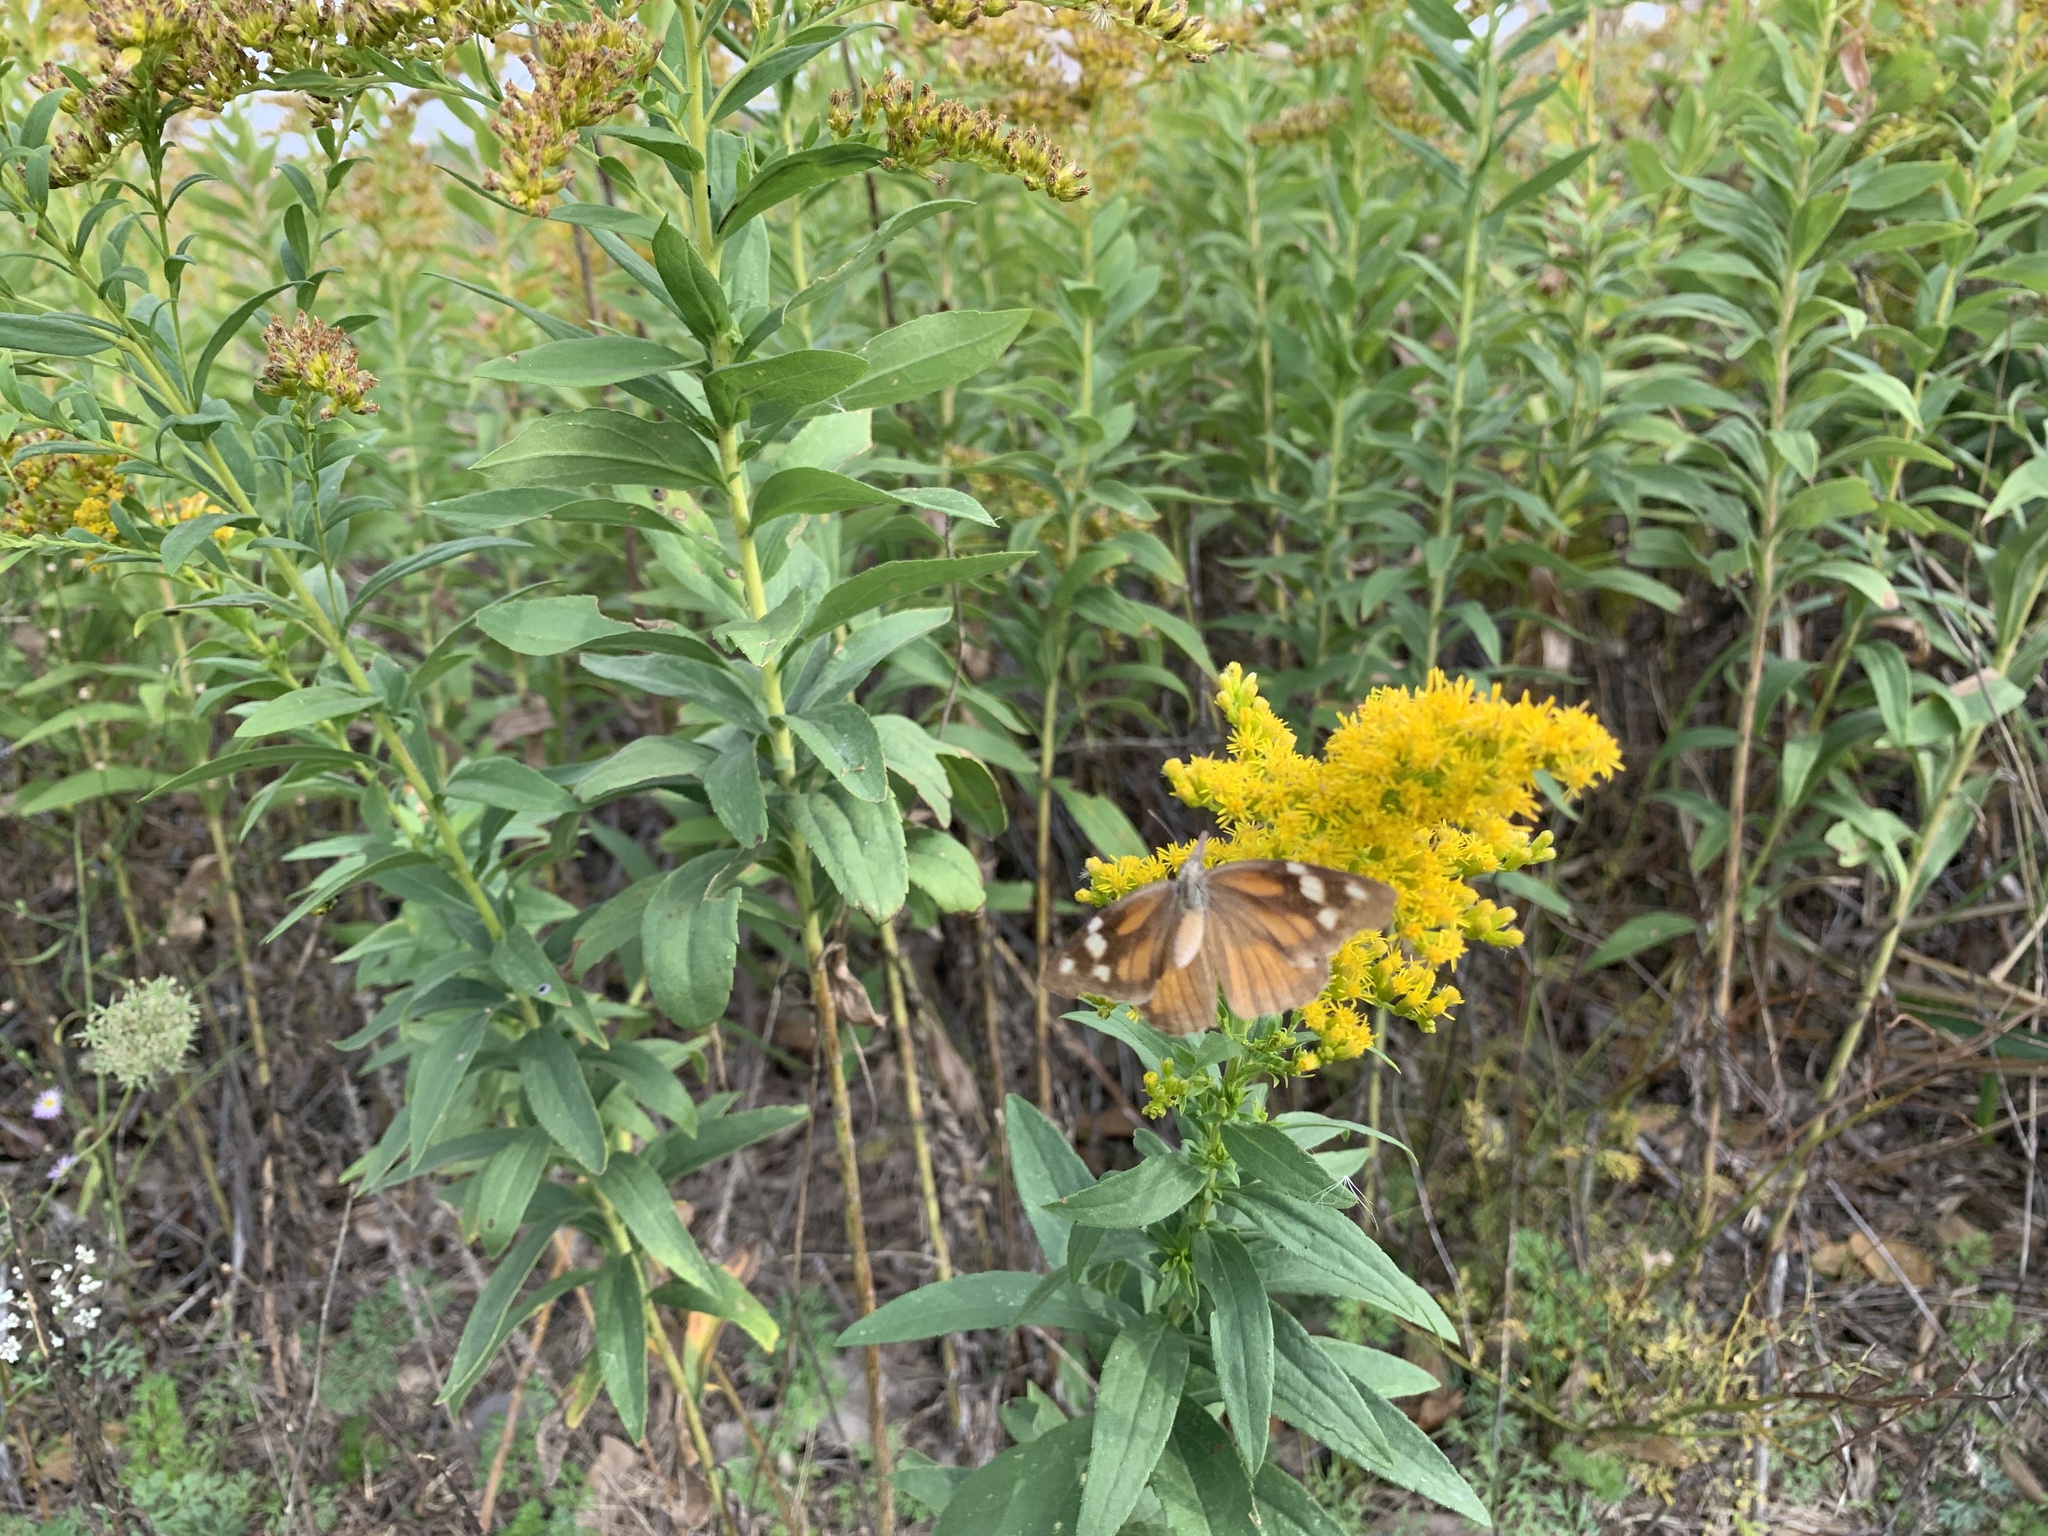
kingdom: Animalia
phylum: Arthropoda
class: Insecta
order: Lepidoptera
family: Nymphalidae
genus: Libytheana
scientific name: Libytheana carinenta
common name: American snout
